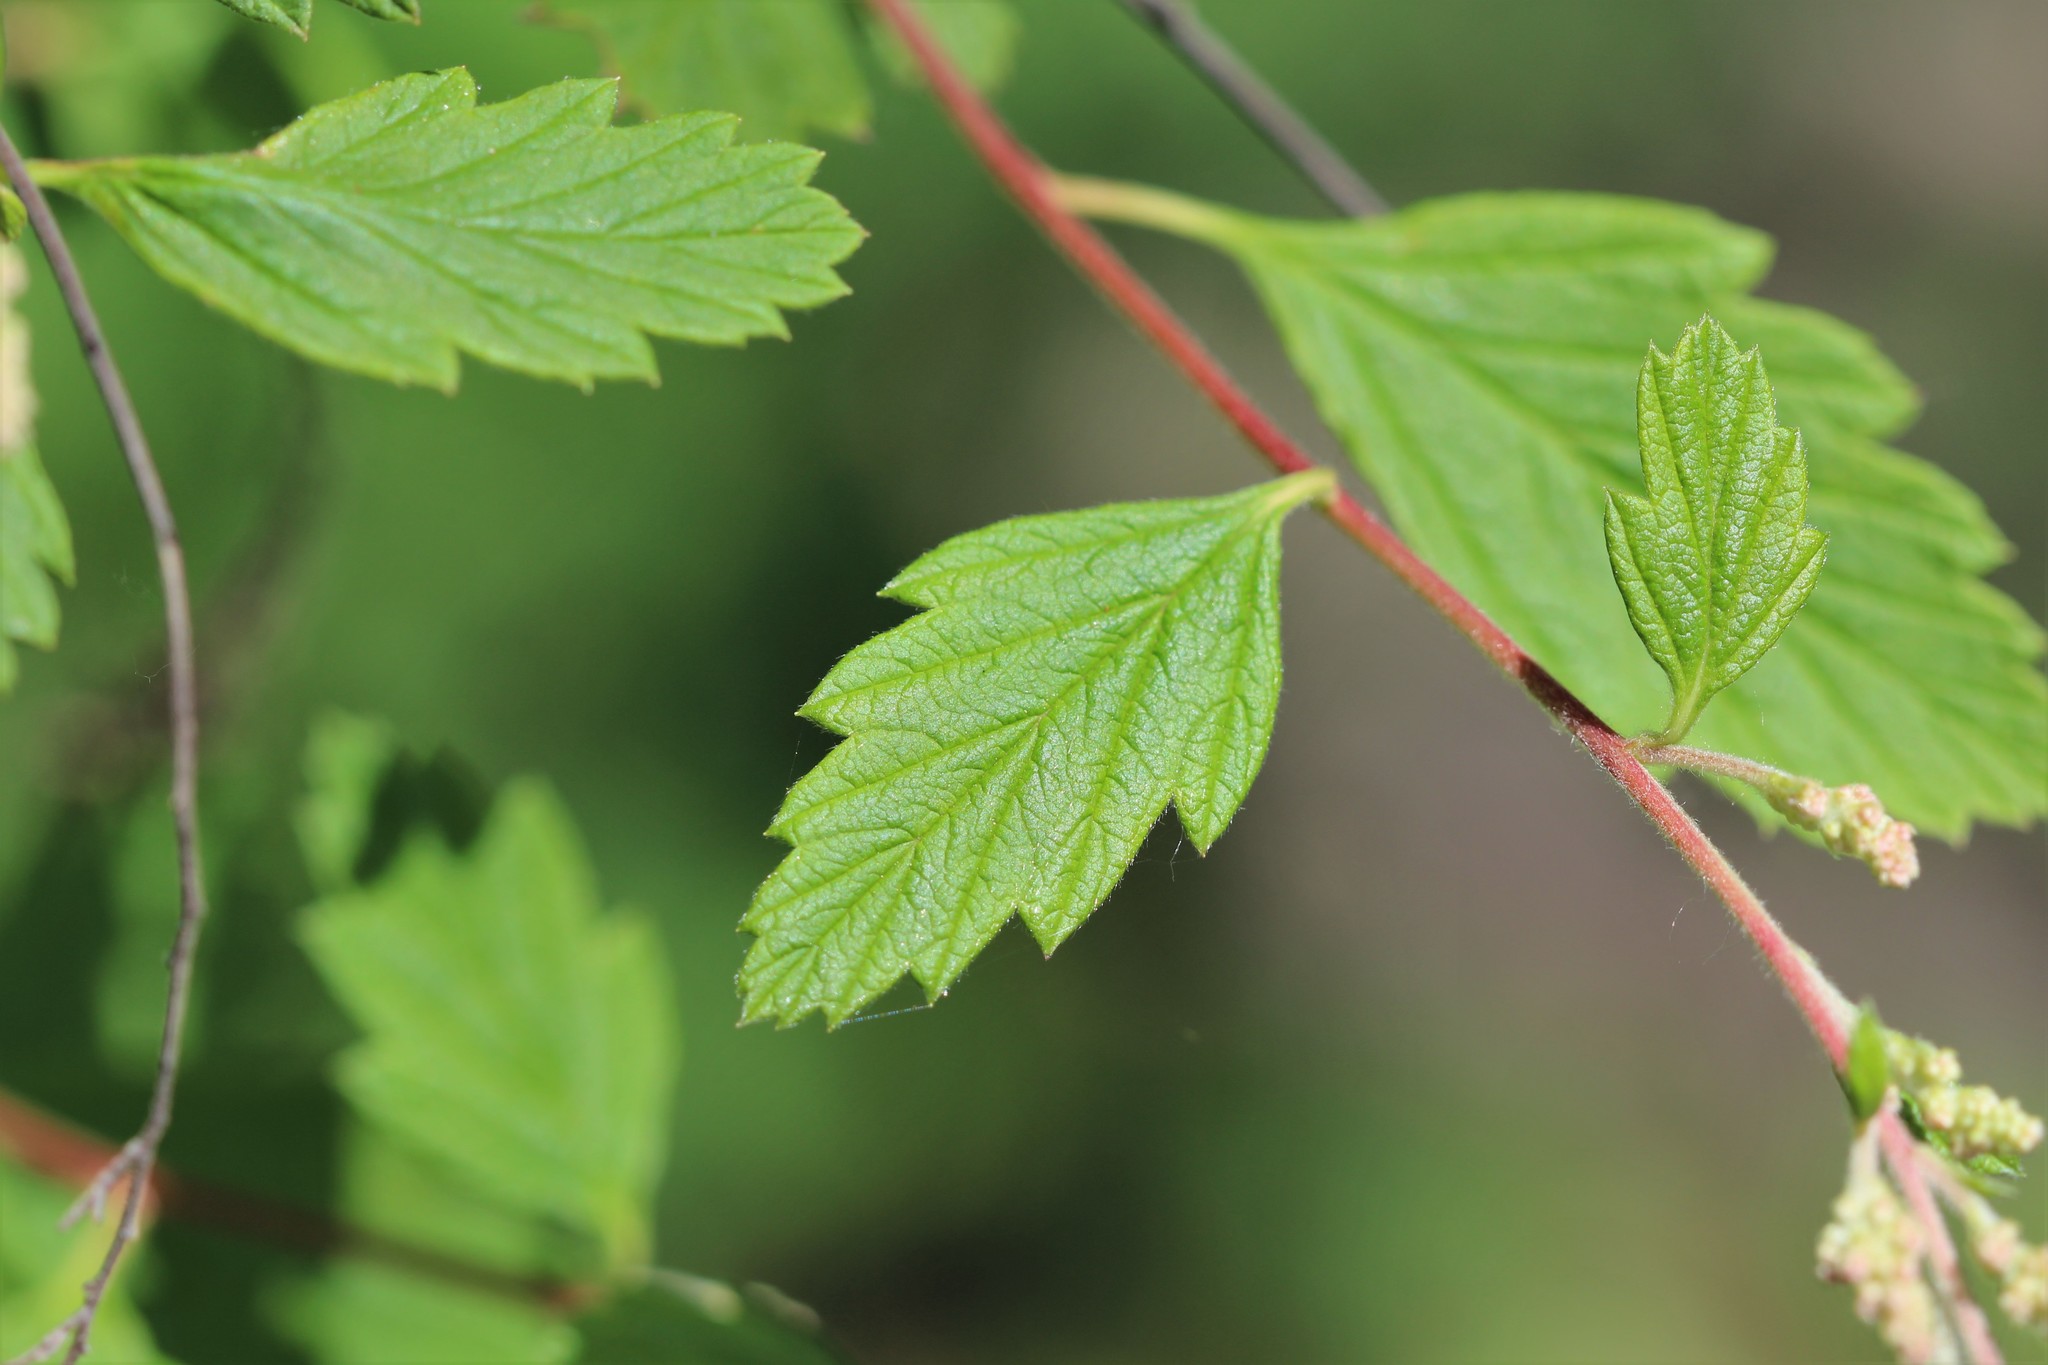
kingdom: Plantae
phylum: Tracheophyta
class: Magnoliopsida
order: Rosales
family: Rosaceae
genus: Holodiscus
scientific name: Holodiscus discolor
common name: Oceanspray
